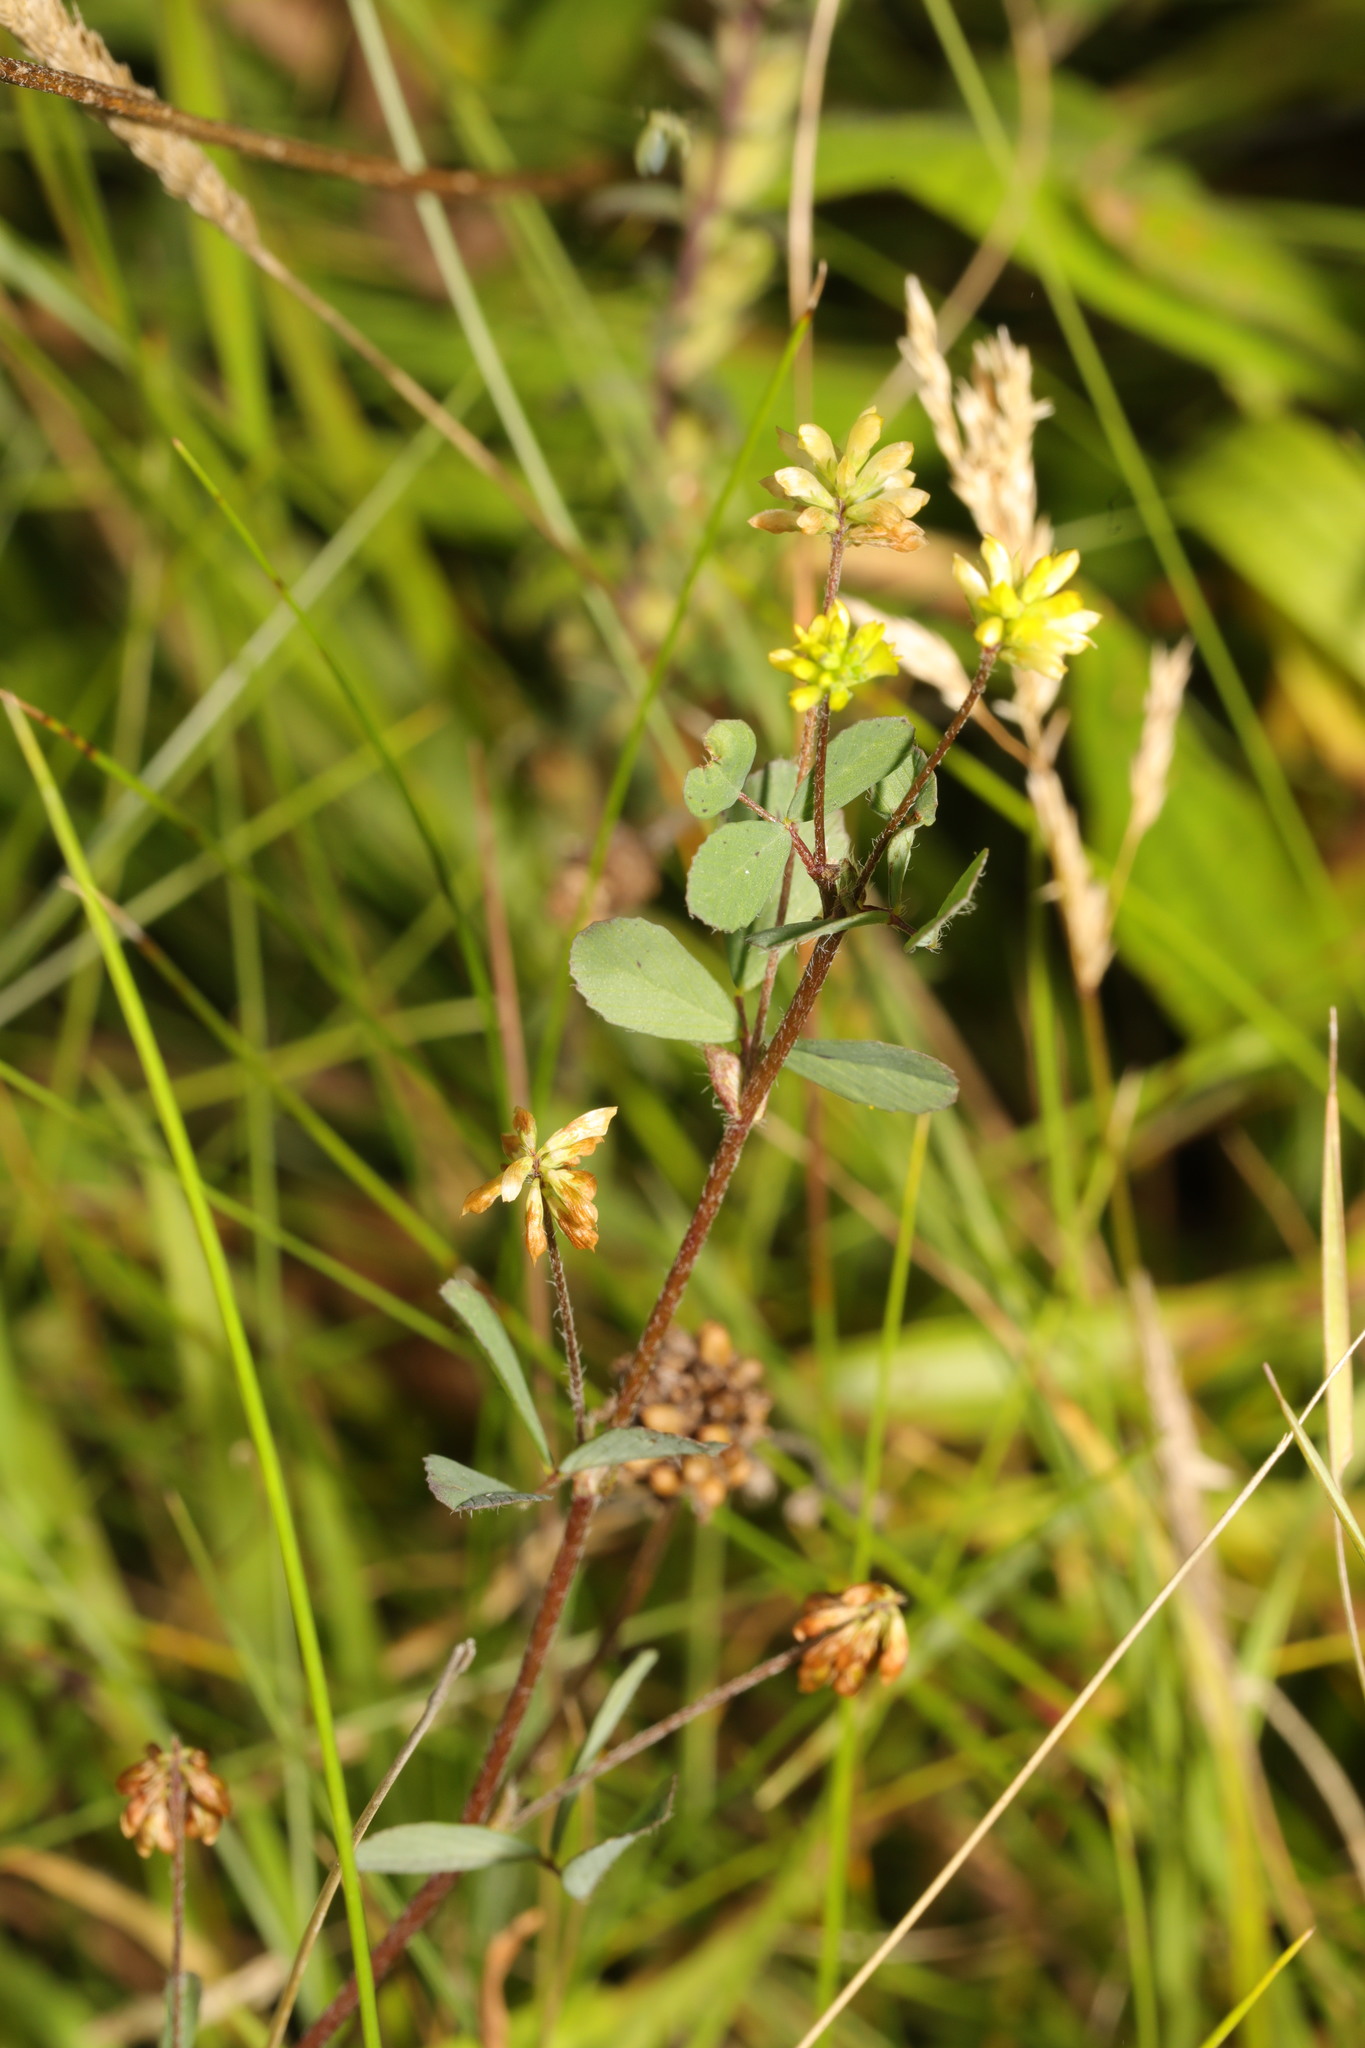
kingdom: Plantae
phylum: Tracheophyta
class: Magnoliopsida
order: Fabales
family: Fabaceae
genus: Trifolium
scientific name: Trifolium dubium
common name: Suckling clover
